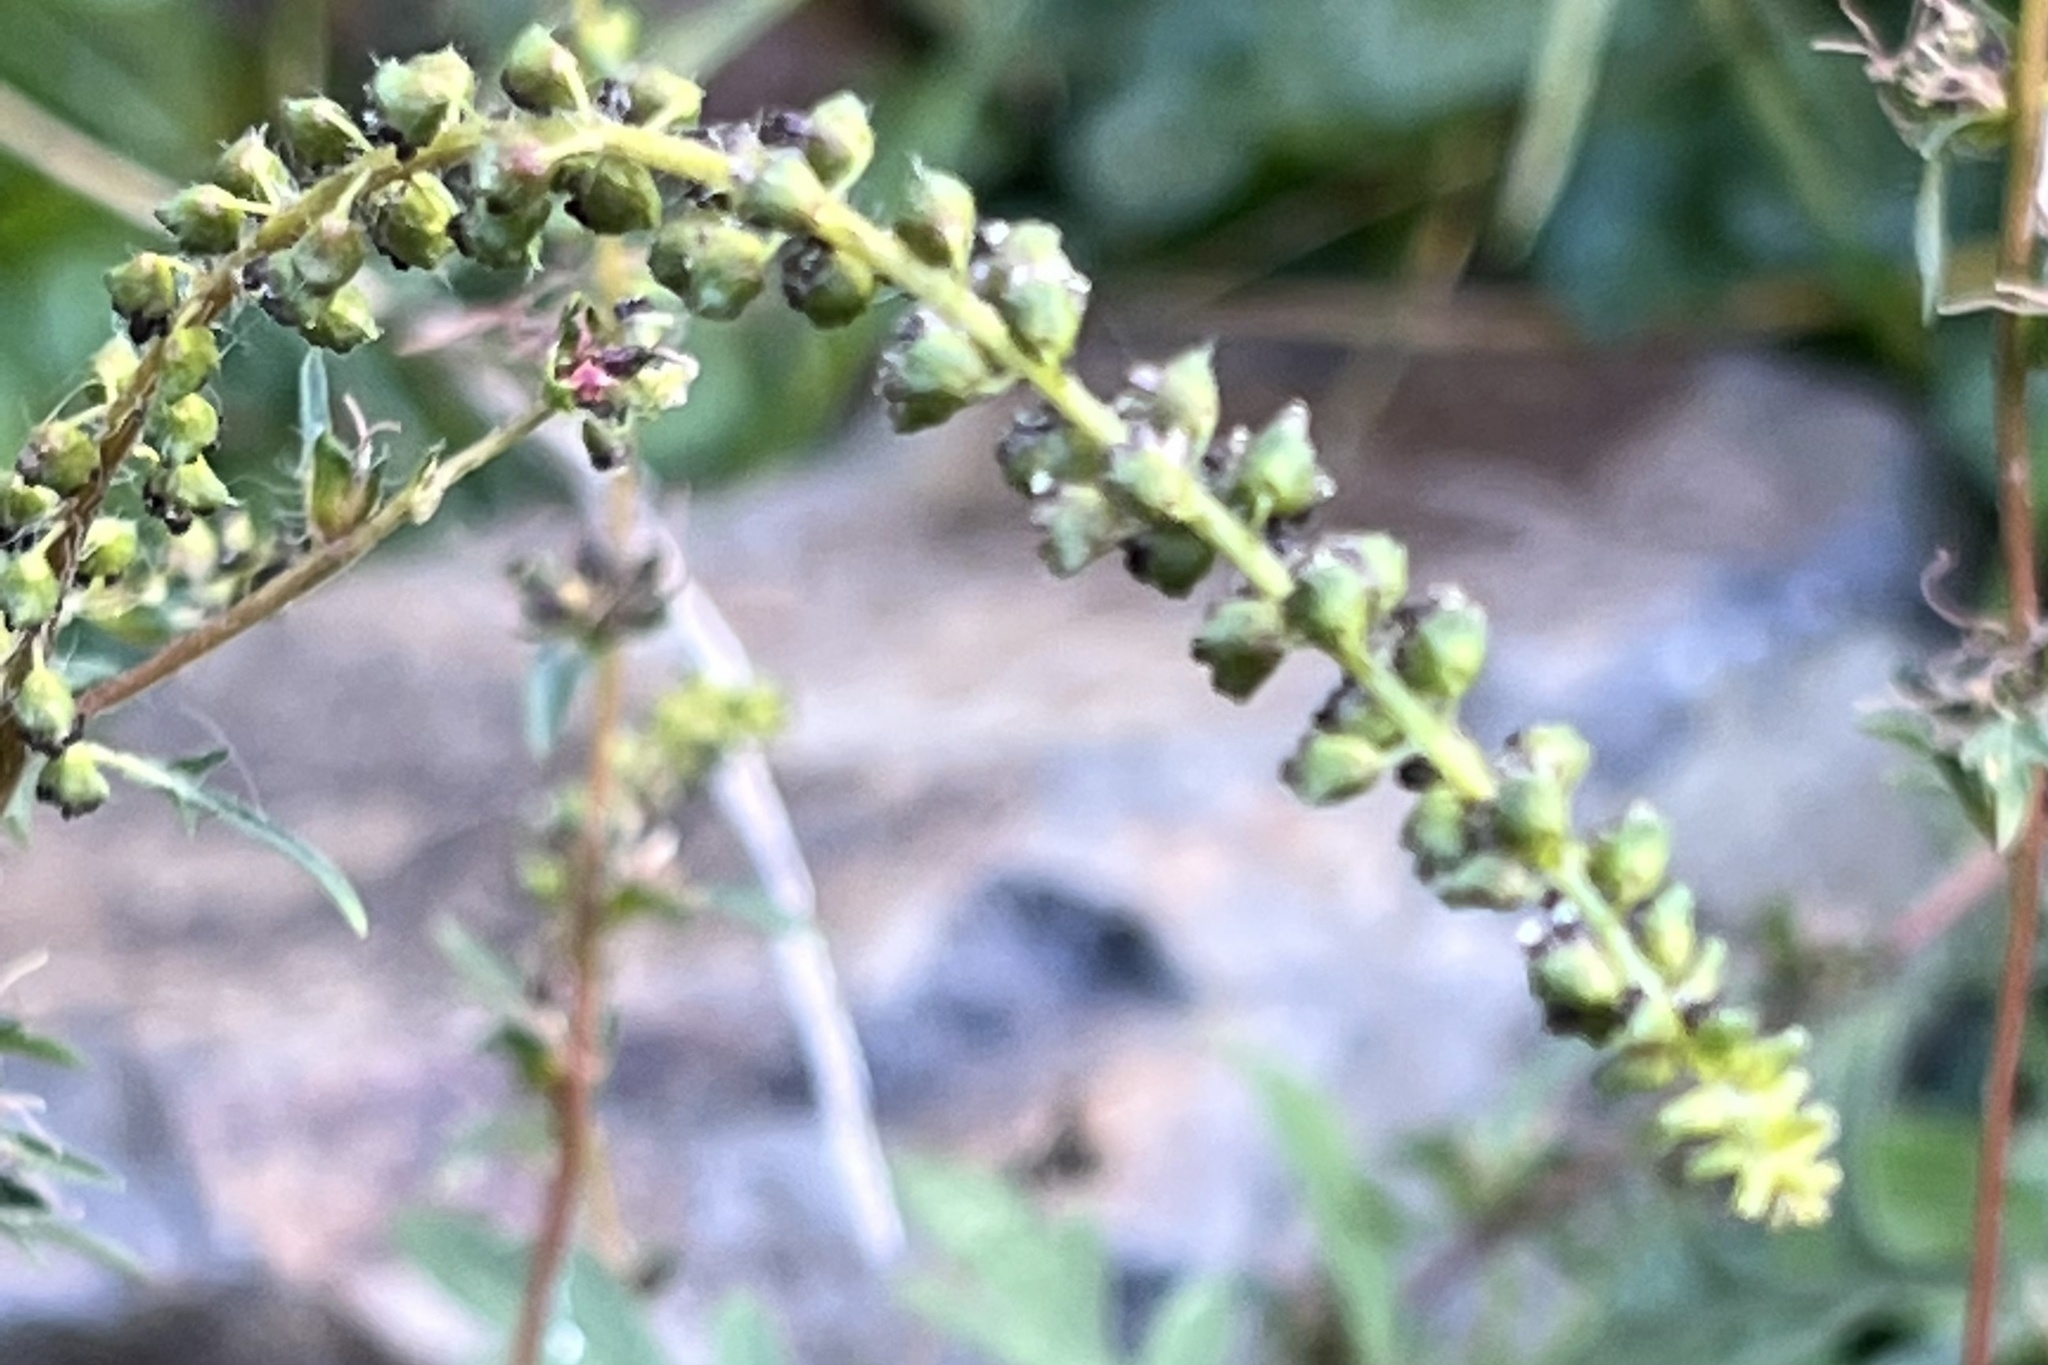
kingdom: Plantae
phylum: Tracheophyta
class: Magnoliopsida
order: Asterales
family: Asteraceae
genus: Ambrosia
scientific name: Ambrosia artemisiifolia
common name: Annual ragweed
